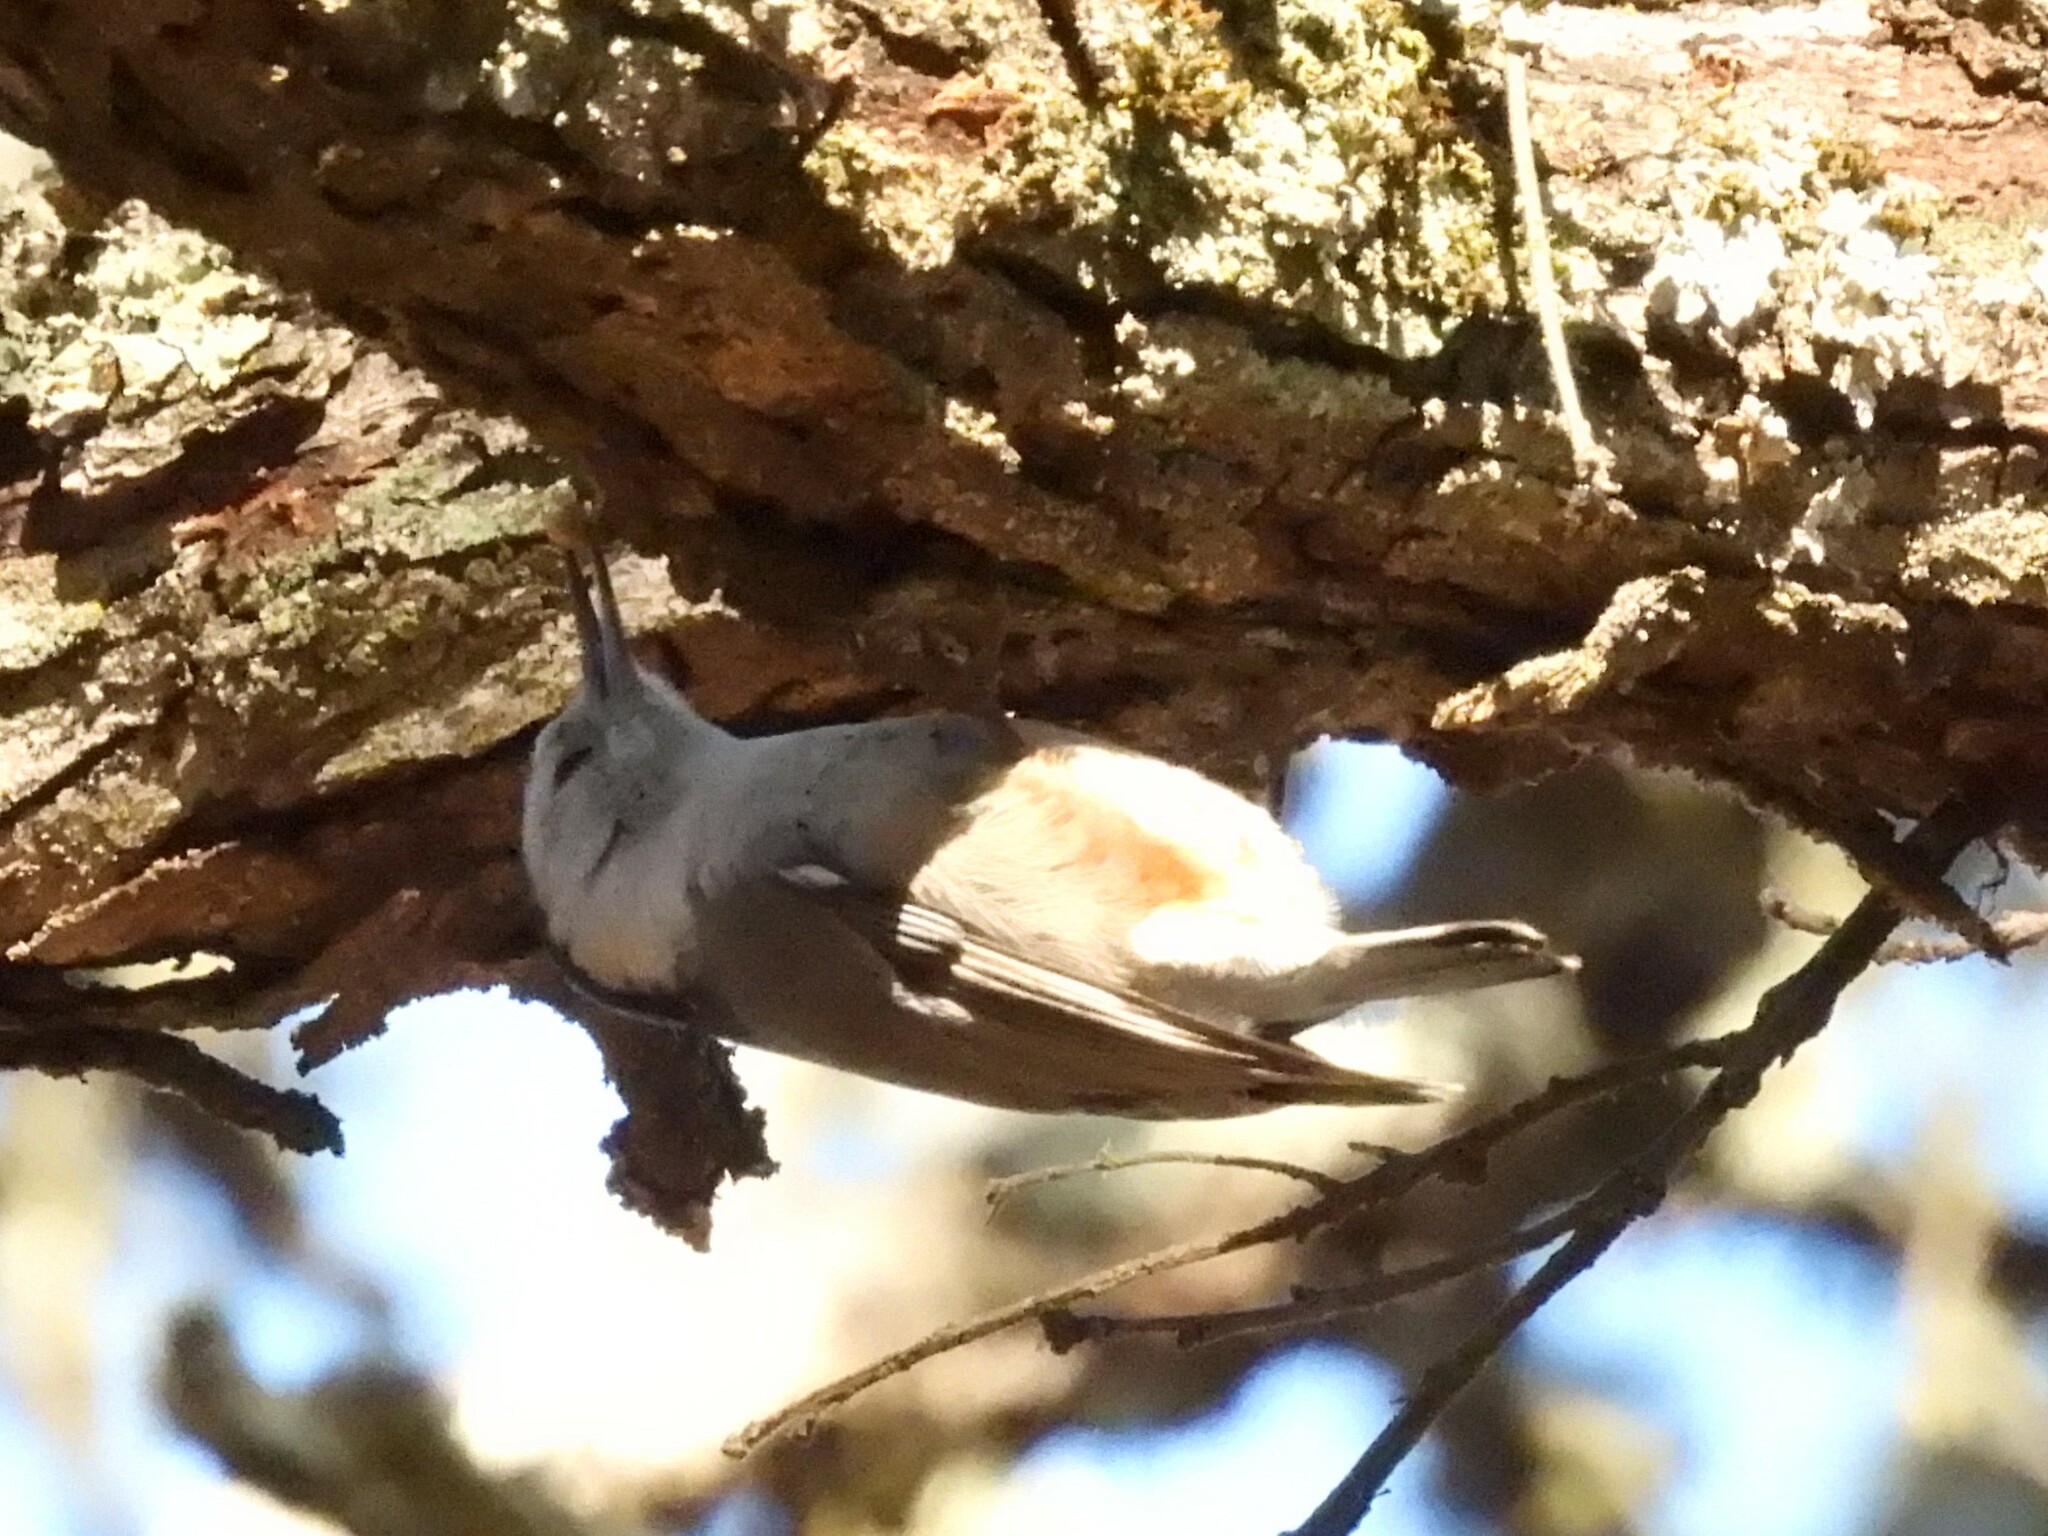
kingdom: Animalia
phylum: Chordata
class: Aves
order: Passeriformes
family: Sittidae
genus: Sitta
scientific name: Sitta carolinensis
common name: White-breasted nuthatch
